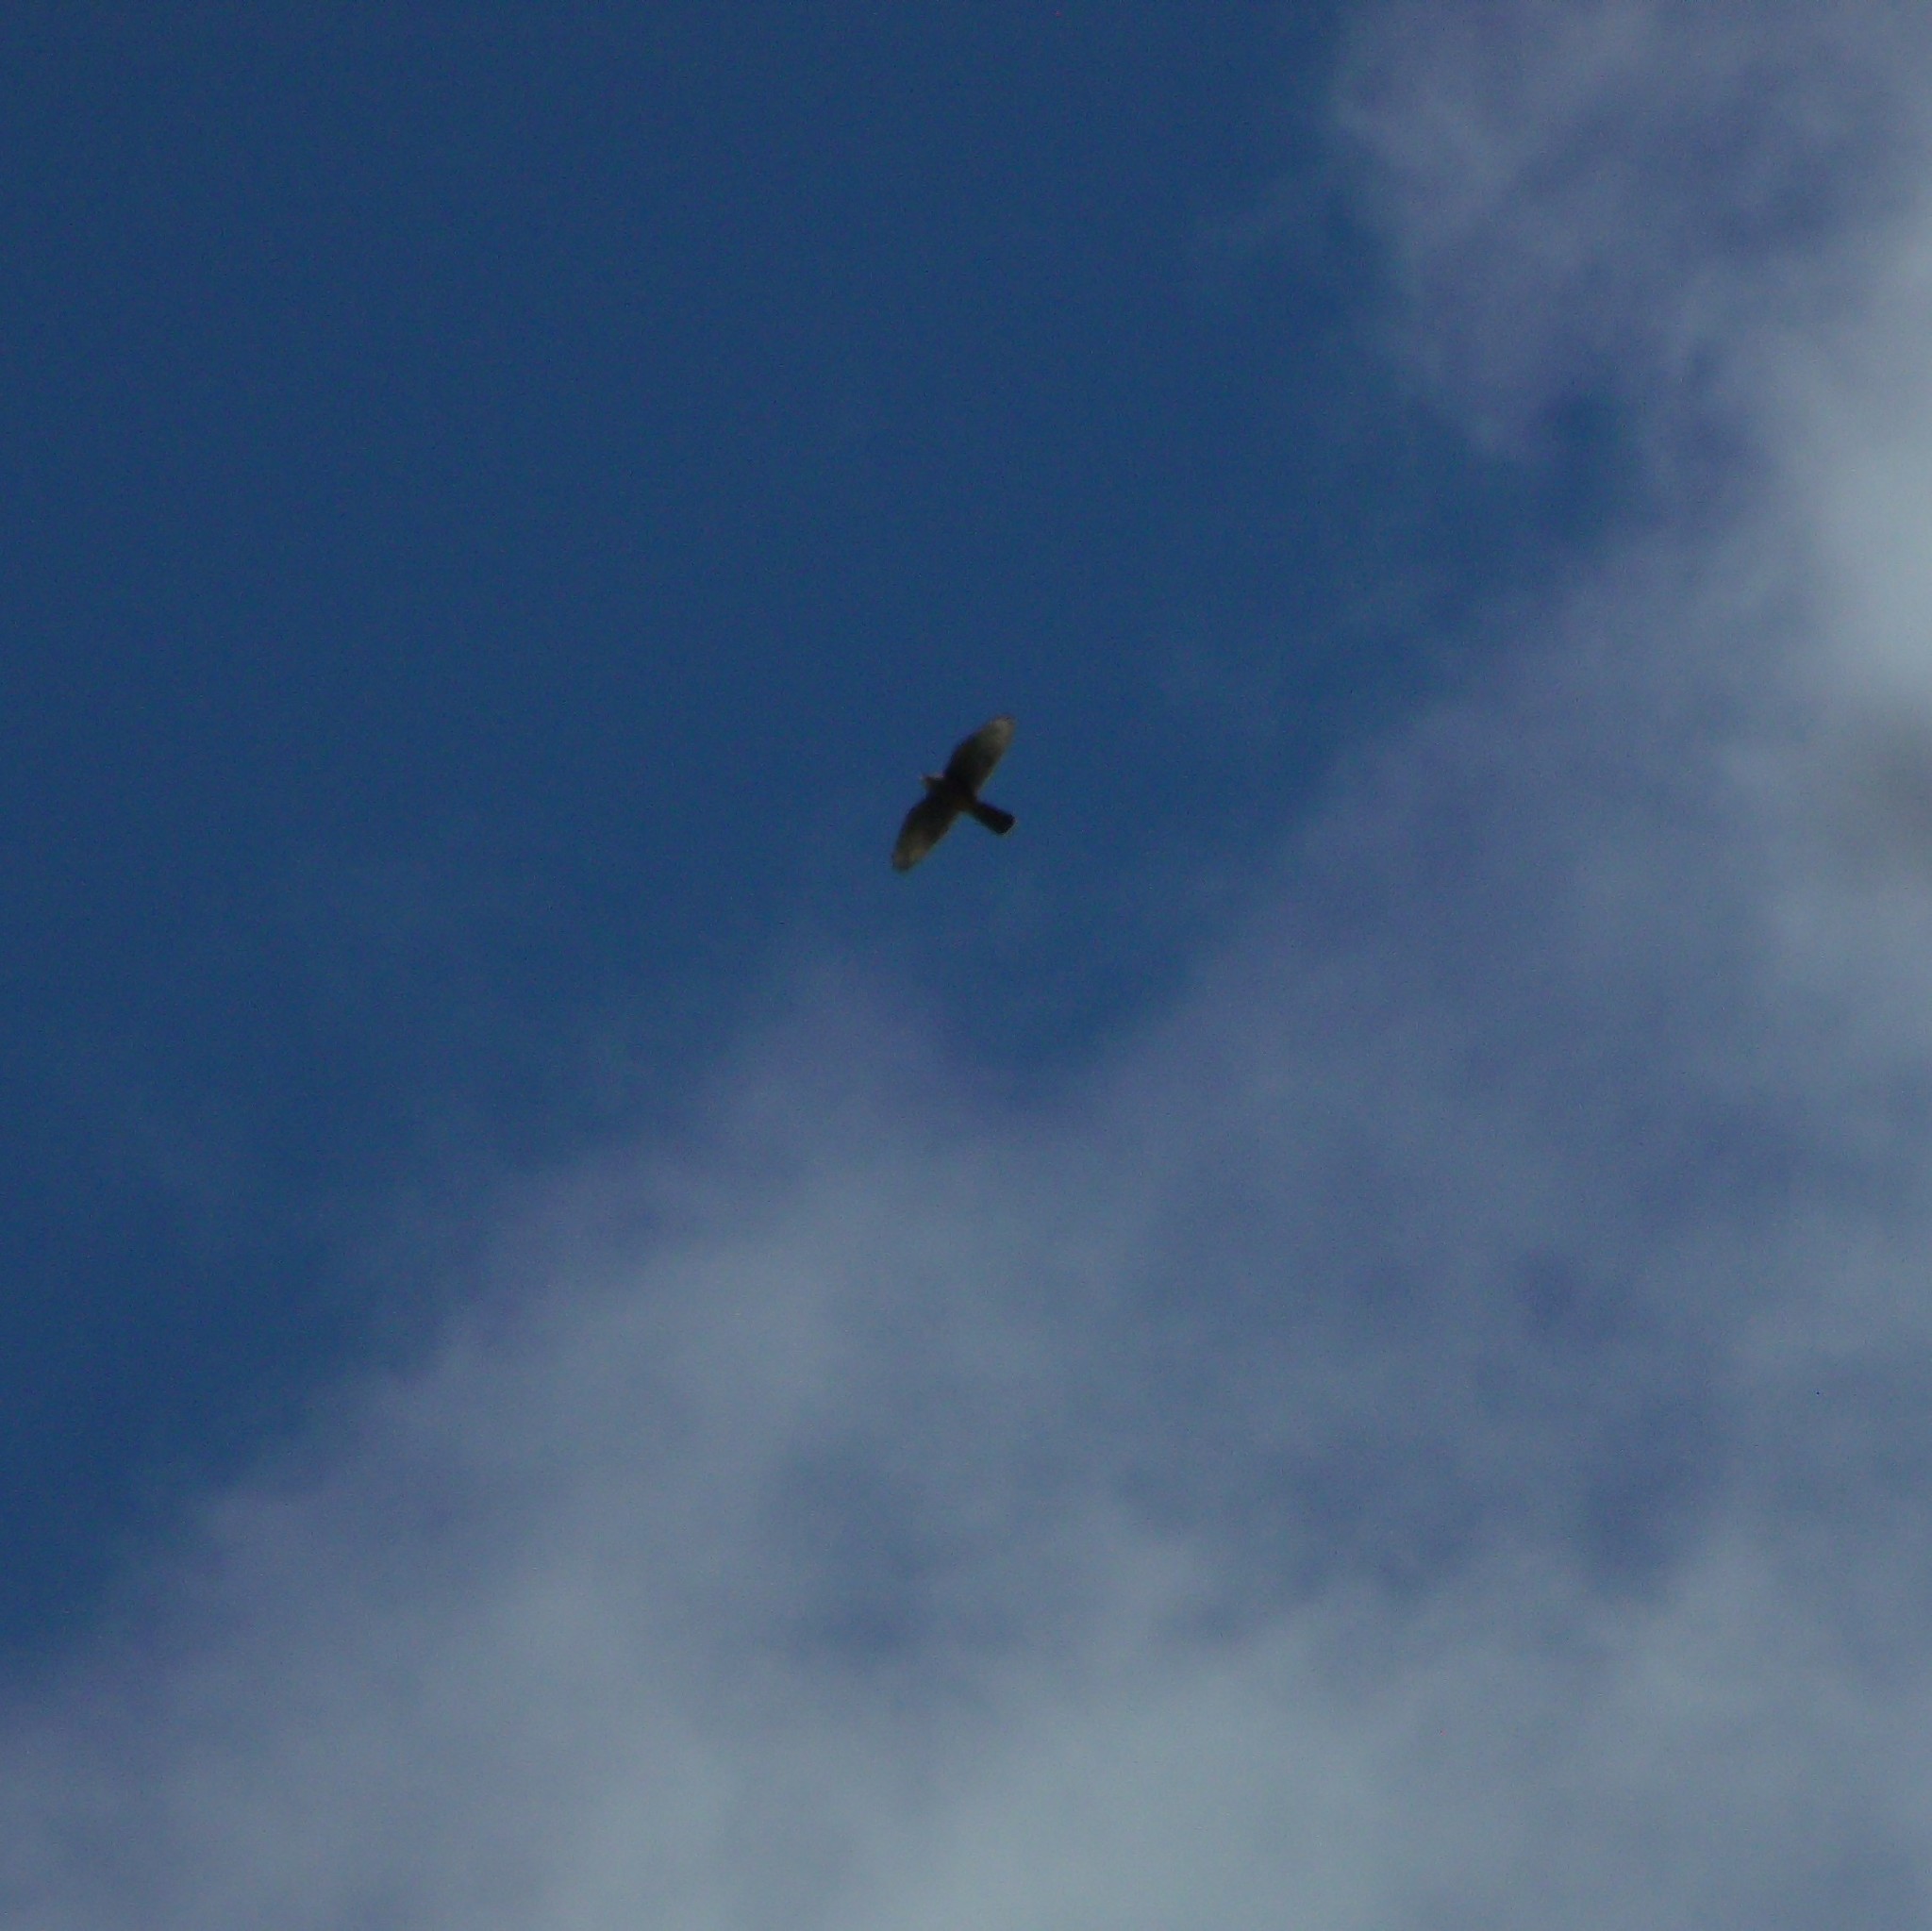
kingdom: Animalia
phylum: Chordata
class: Aves
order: Falconiformes
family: Falconidae
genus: Falco
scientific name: Falco novaeseelandiae
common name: New zealand falcon
